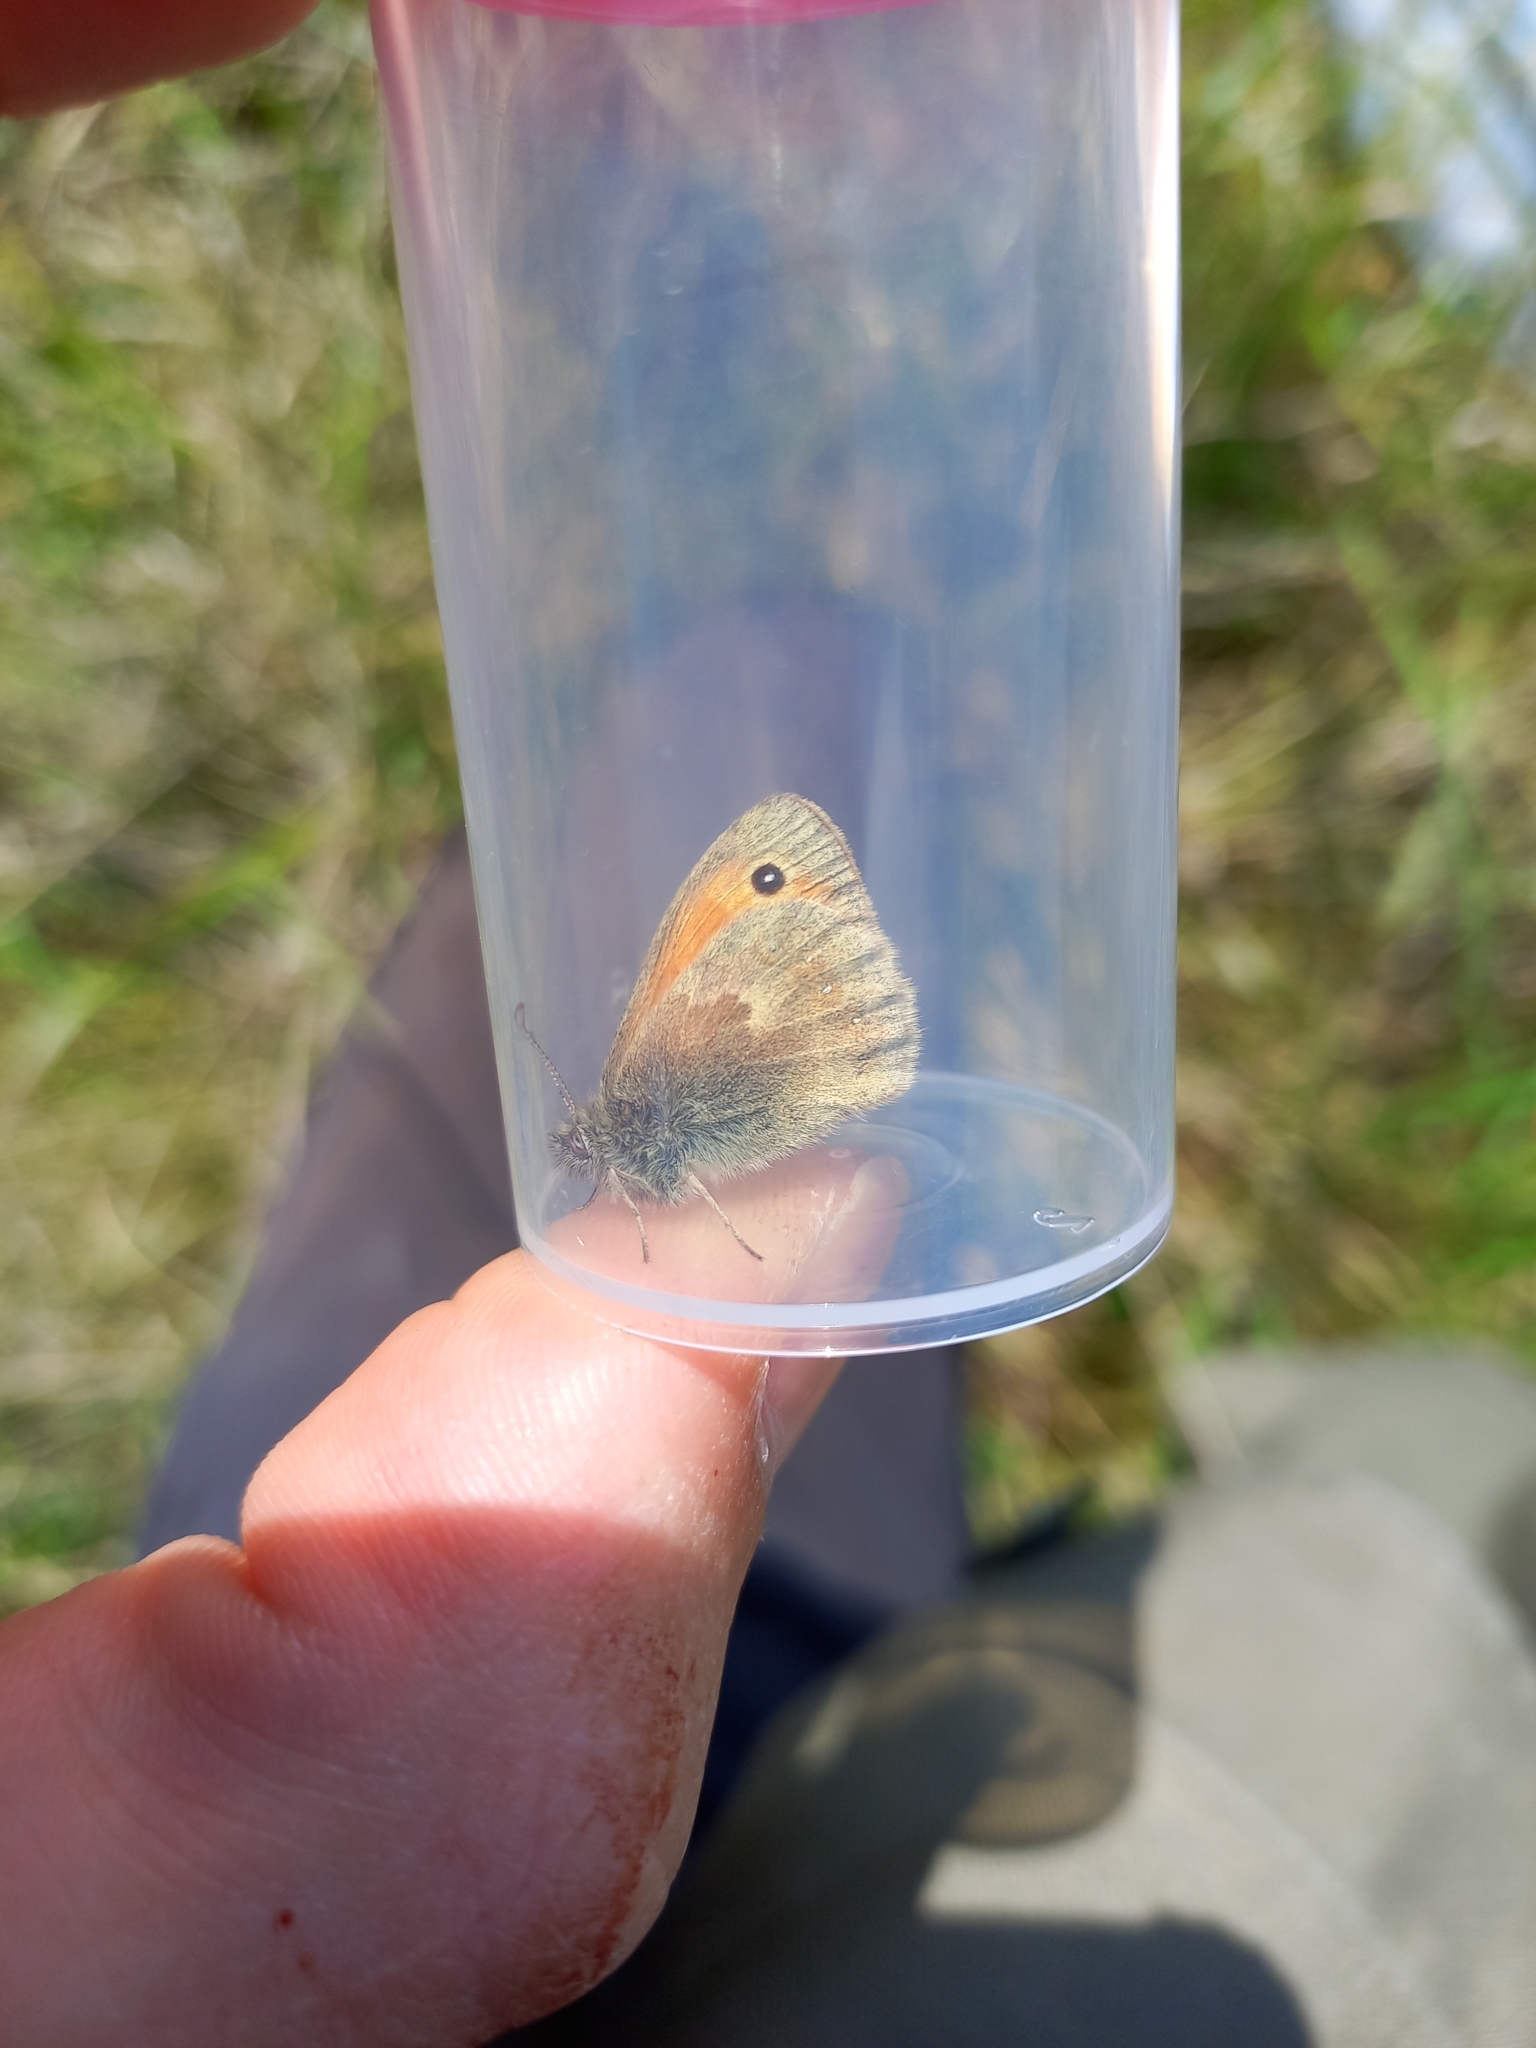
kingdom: Animalia
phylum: Arthropoda
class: Insecta
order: Lepidoptera
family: Nymphalidae
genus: Coenonympha
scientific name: Coenonympha pamphilus
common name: Small heath
